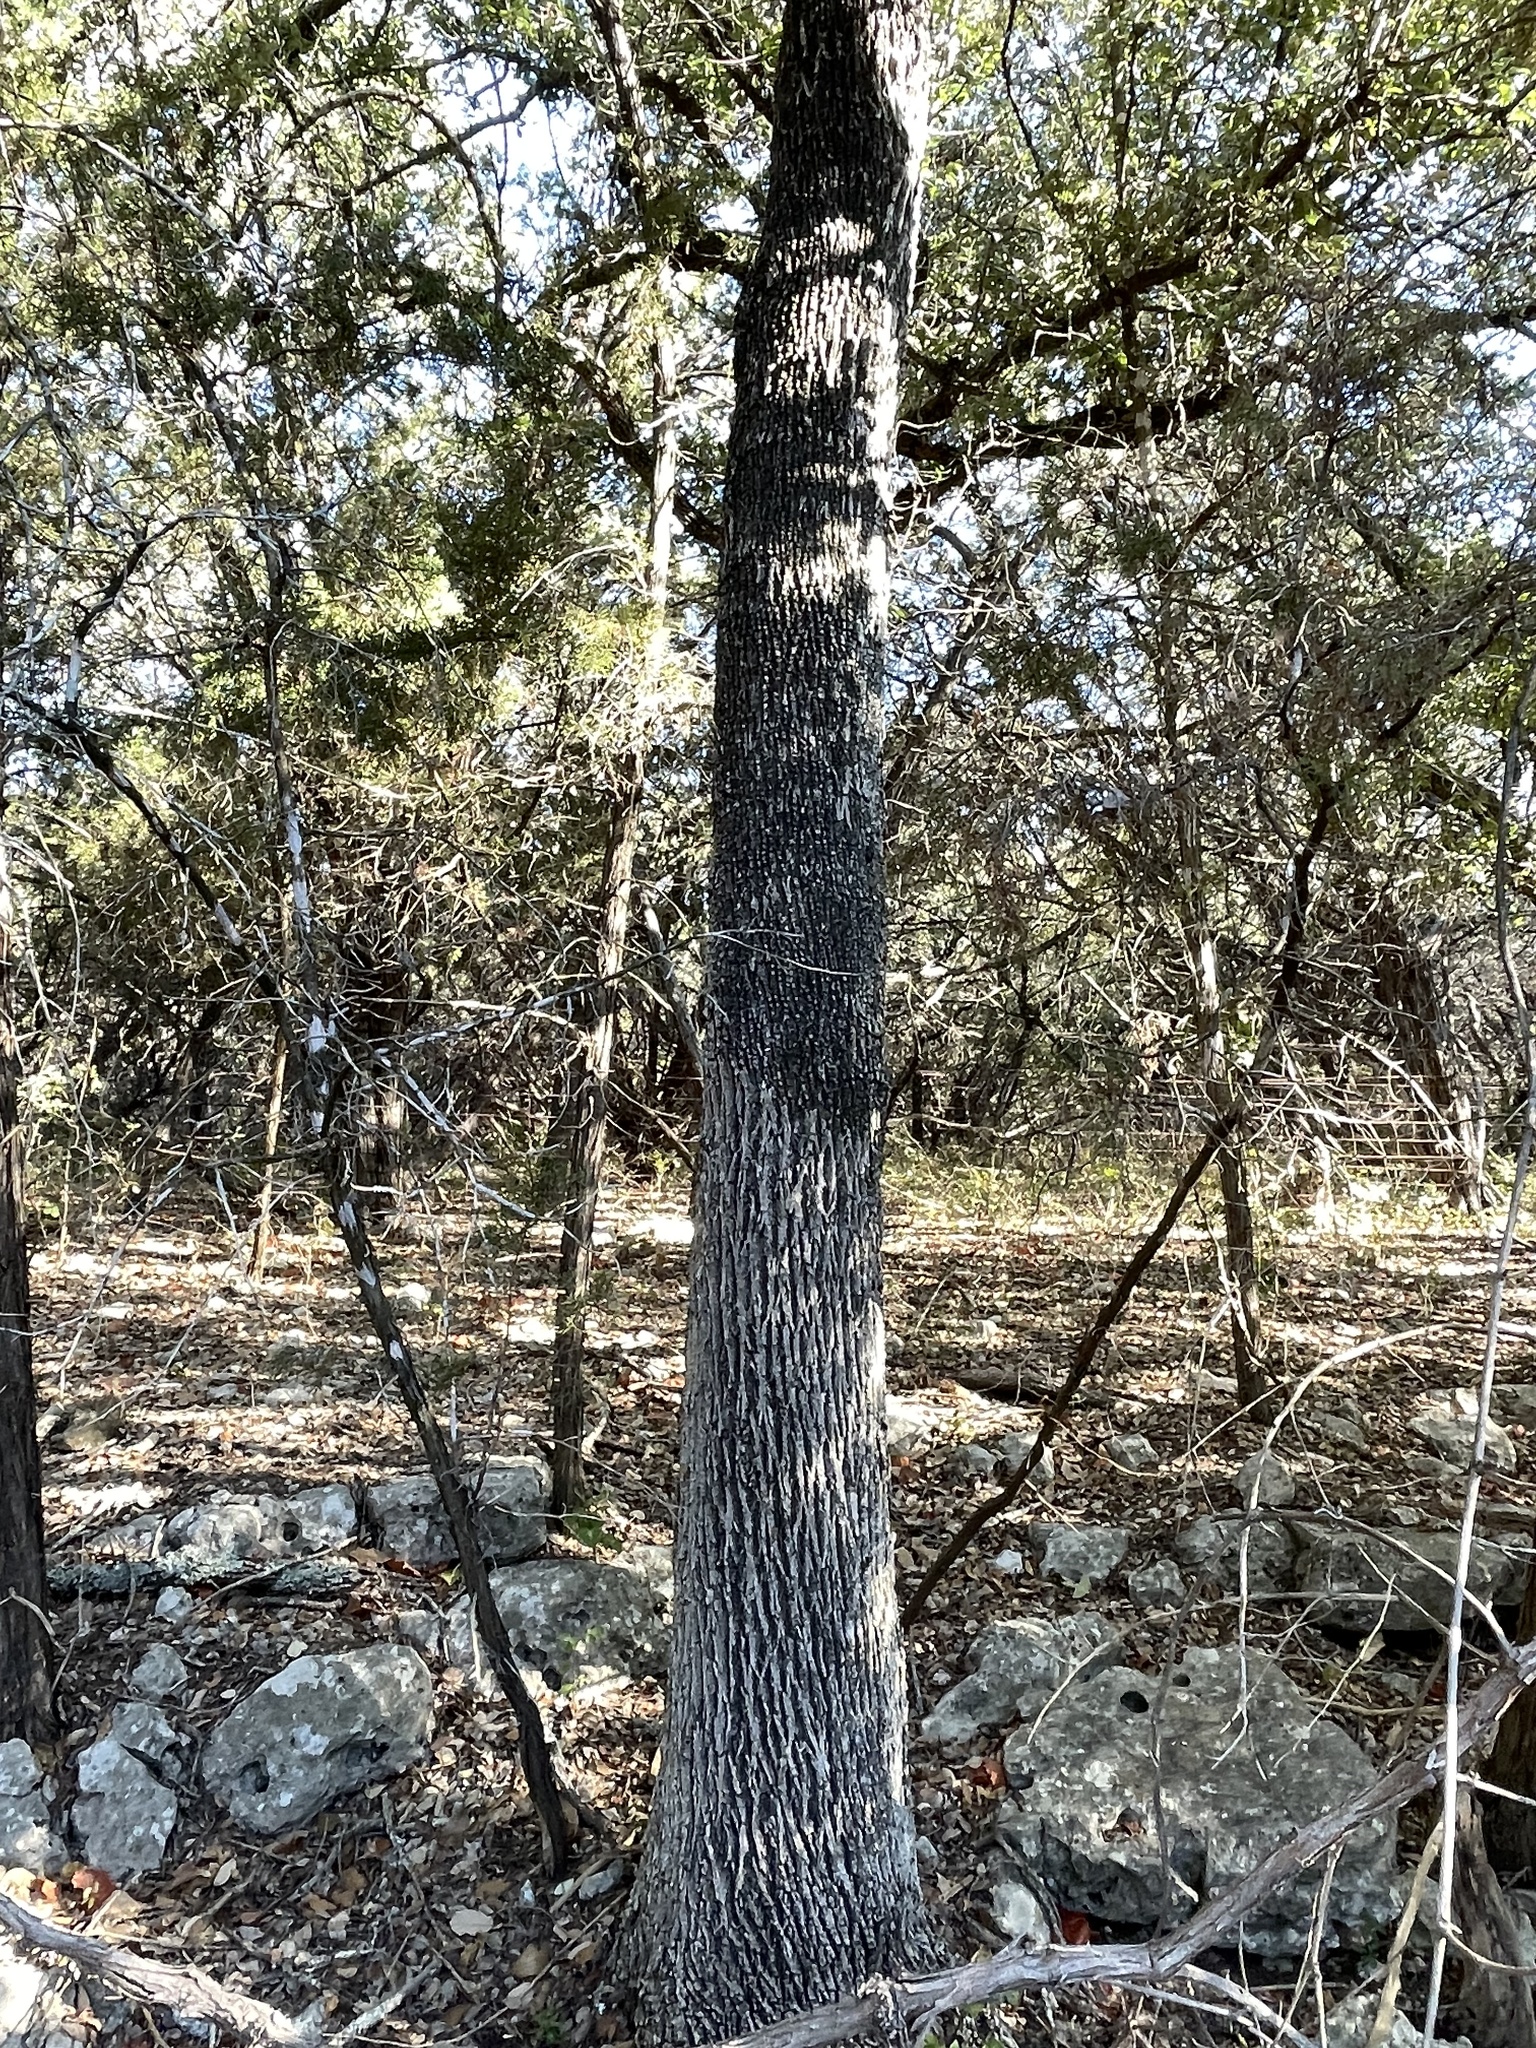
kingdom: Plantae
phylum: Tracheophyta
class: Magnoliopsida
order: Lamiales
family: Oleaceae
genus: Fraxinus
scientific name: Fraxinus albicans
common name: Texas ash
